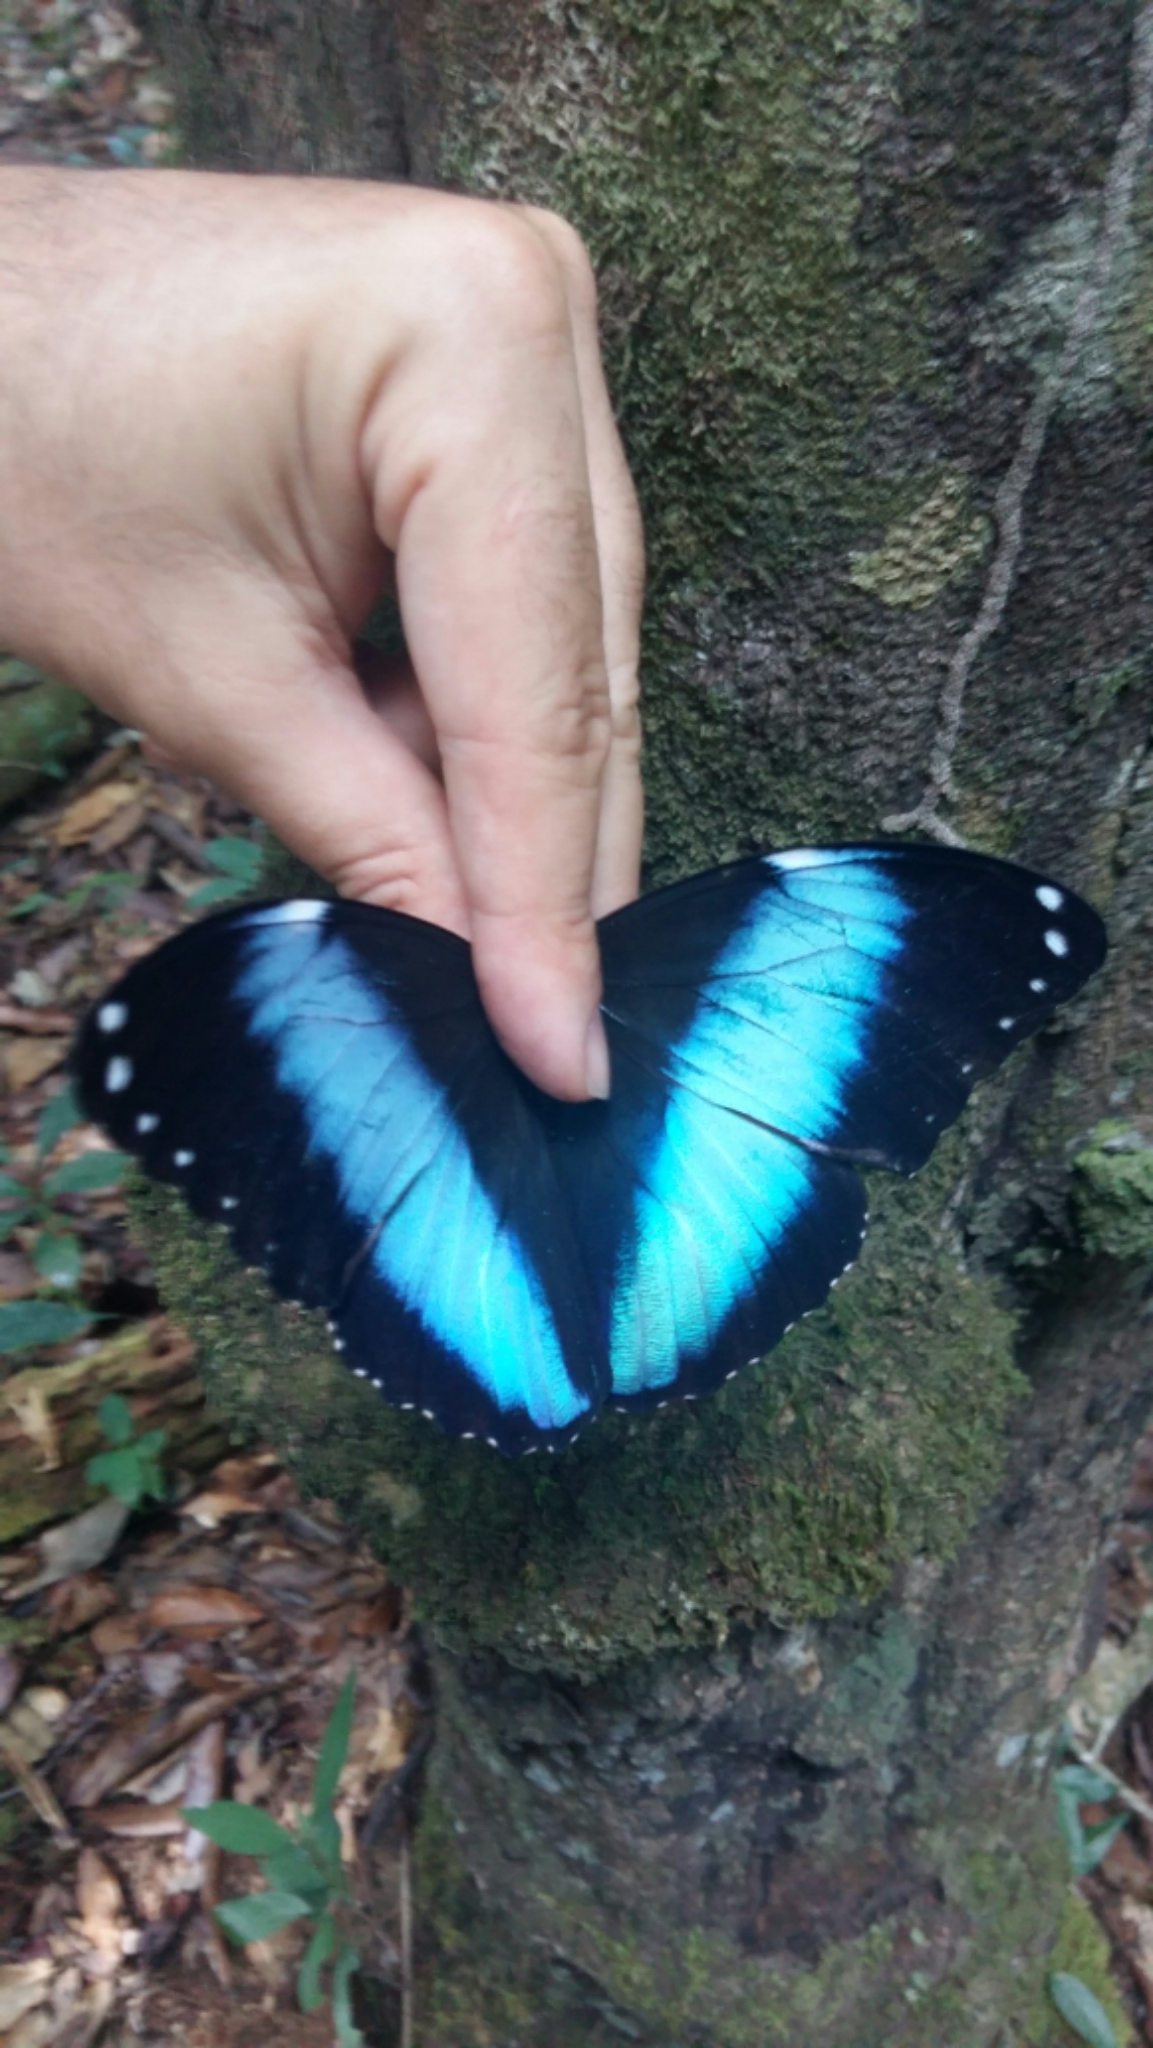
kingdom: Animalia
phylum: Arthropoda
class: Insecta
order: Lepidoptera
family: Nymphalidae
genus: Morpho
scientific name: Morpho achilles
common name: Achilles morpho
